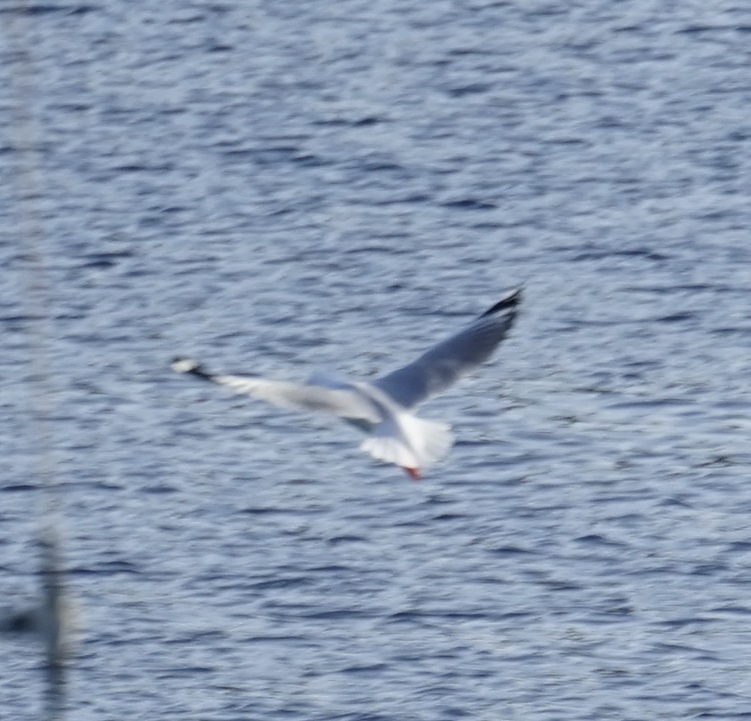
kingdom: Animalia
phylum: Chordata
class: Aves
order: Charadriiformes
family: Laridae
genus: Chroicocephalus
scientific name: Chroicocephalus novaehollandiae
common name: Silver gull
